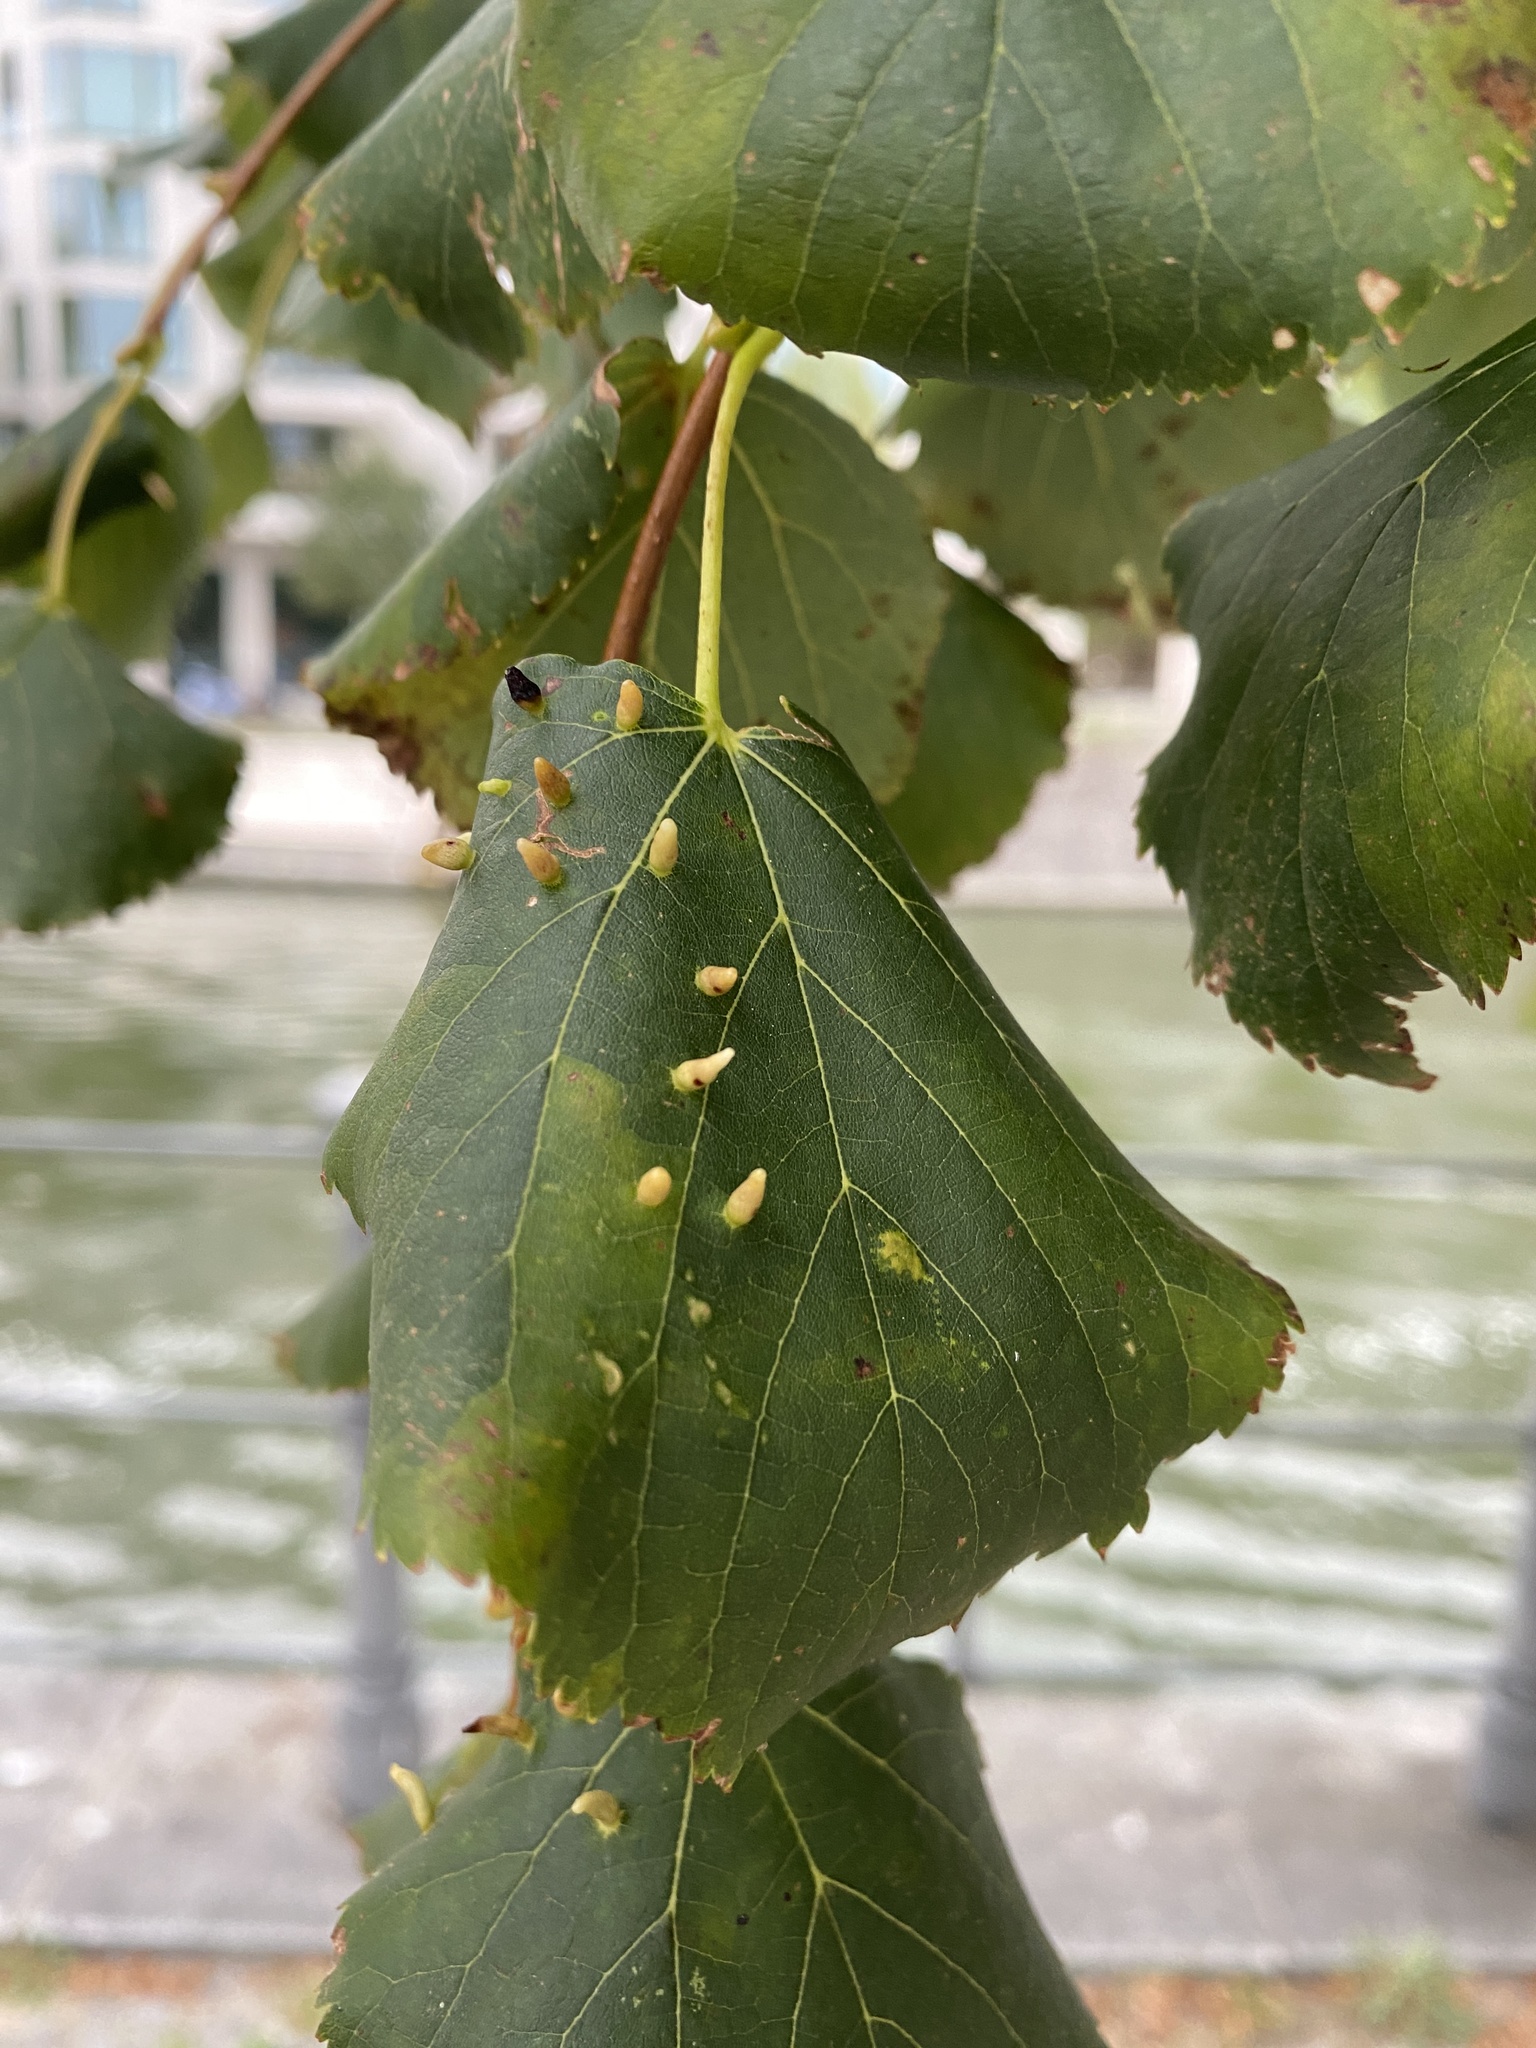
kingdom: Animalia
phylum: Arthropoda
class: Arachnida
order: Trombidiformes
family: Eriophyidae
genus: Eriophyes
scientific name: Eriophyes tiliae
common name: Red nail gall mite
